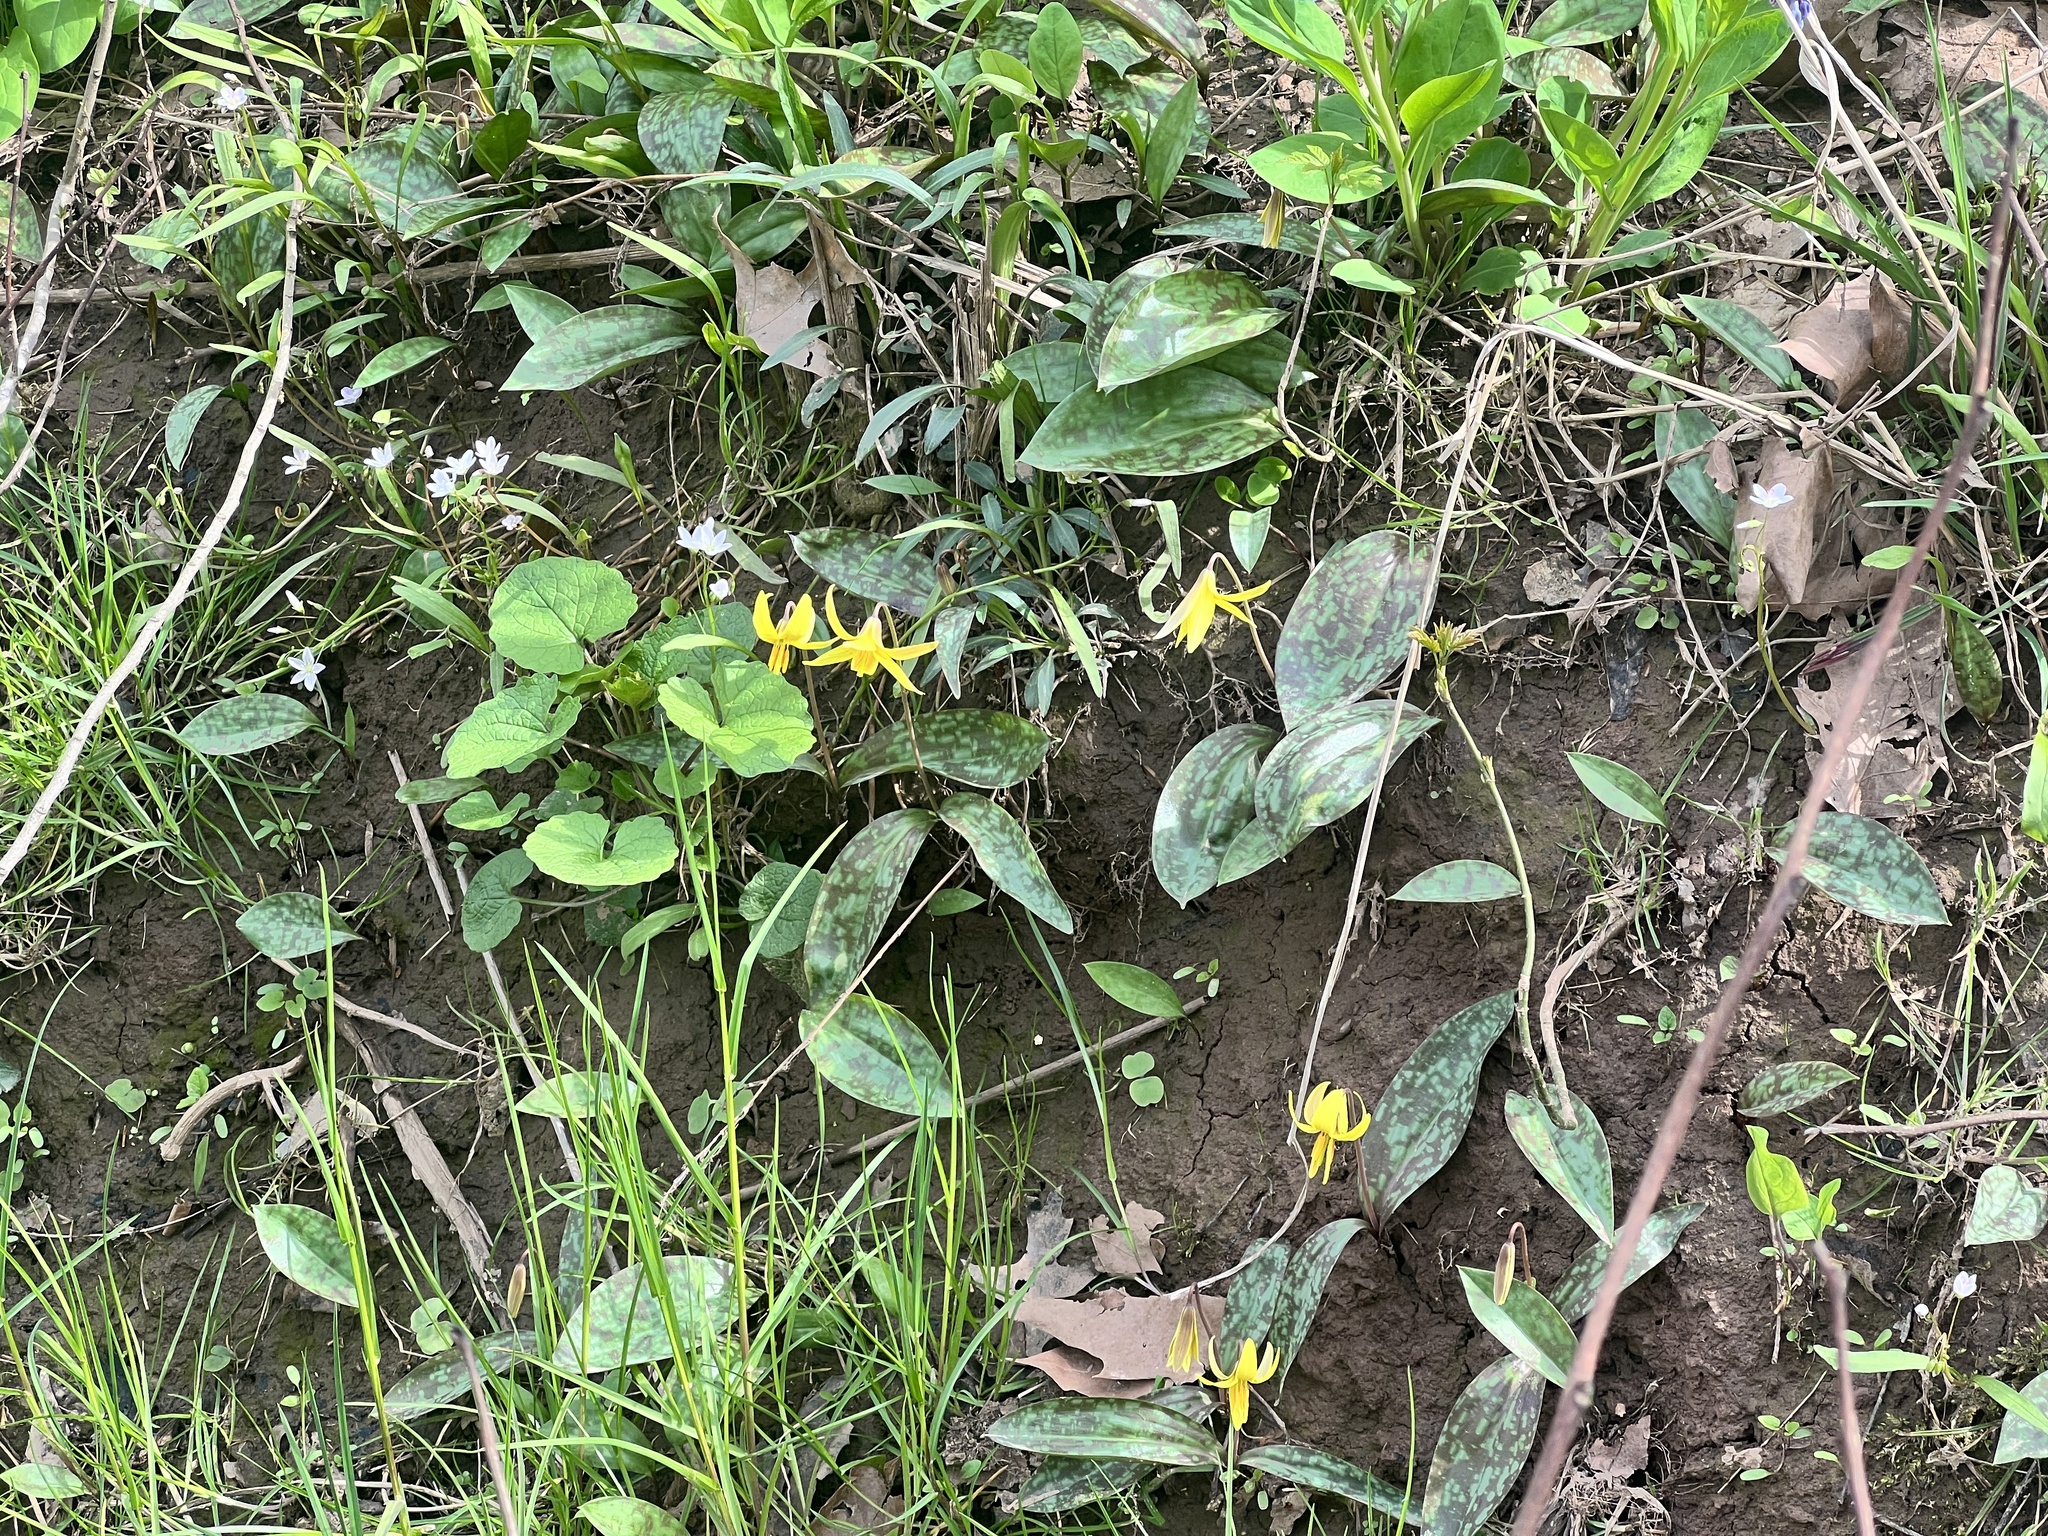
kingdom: Plantae
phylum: Tracheophyta
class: Liliopsida
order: Liliales
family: Liliaceae
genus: Erythronium
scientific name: Erythronium americanum
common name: Yellow adder's-tongue
